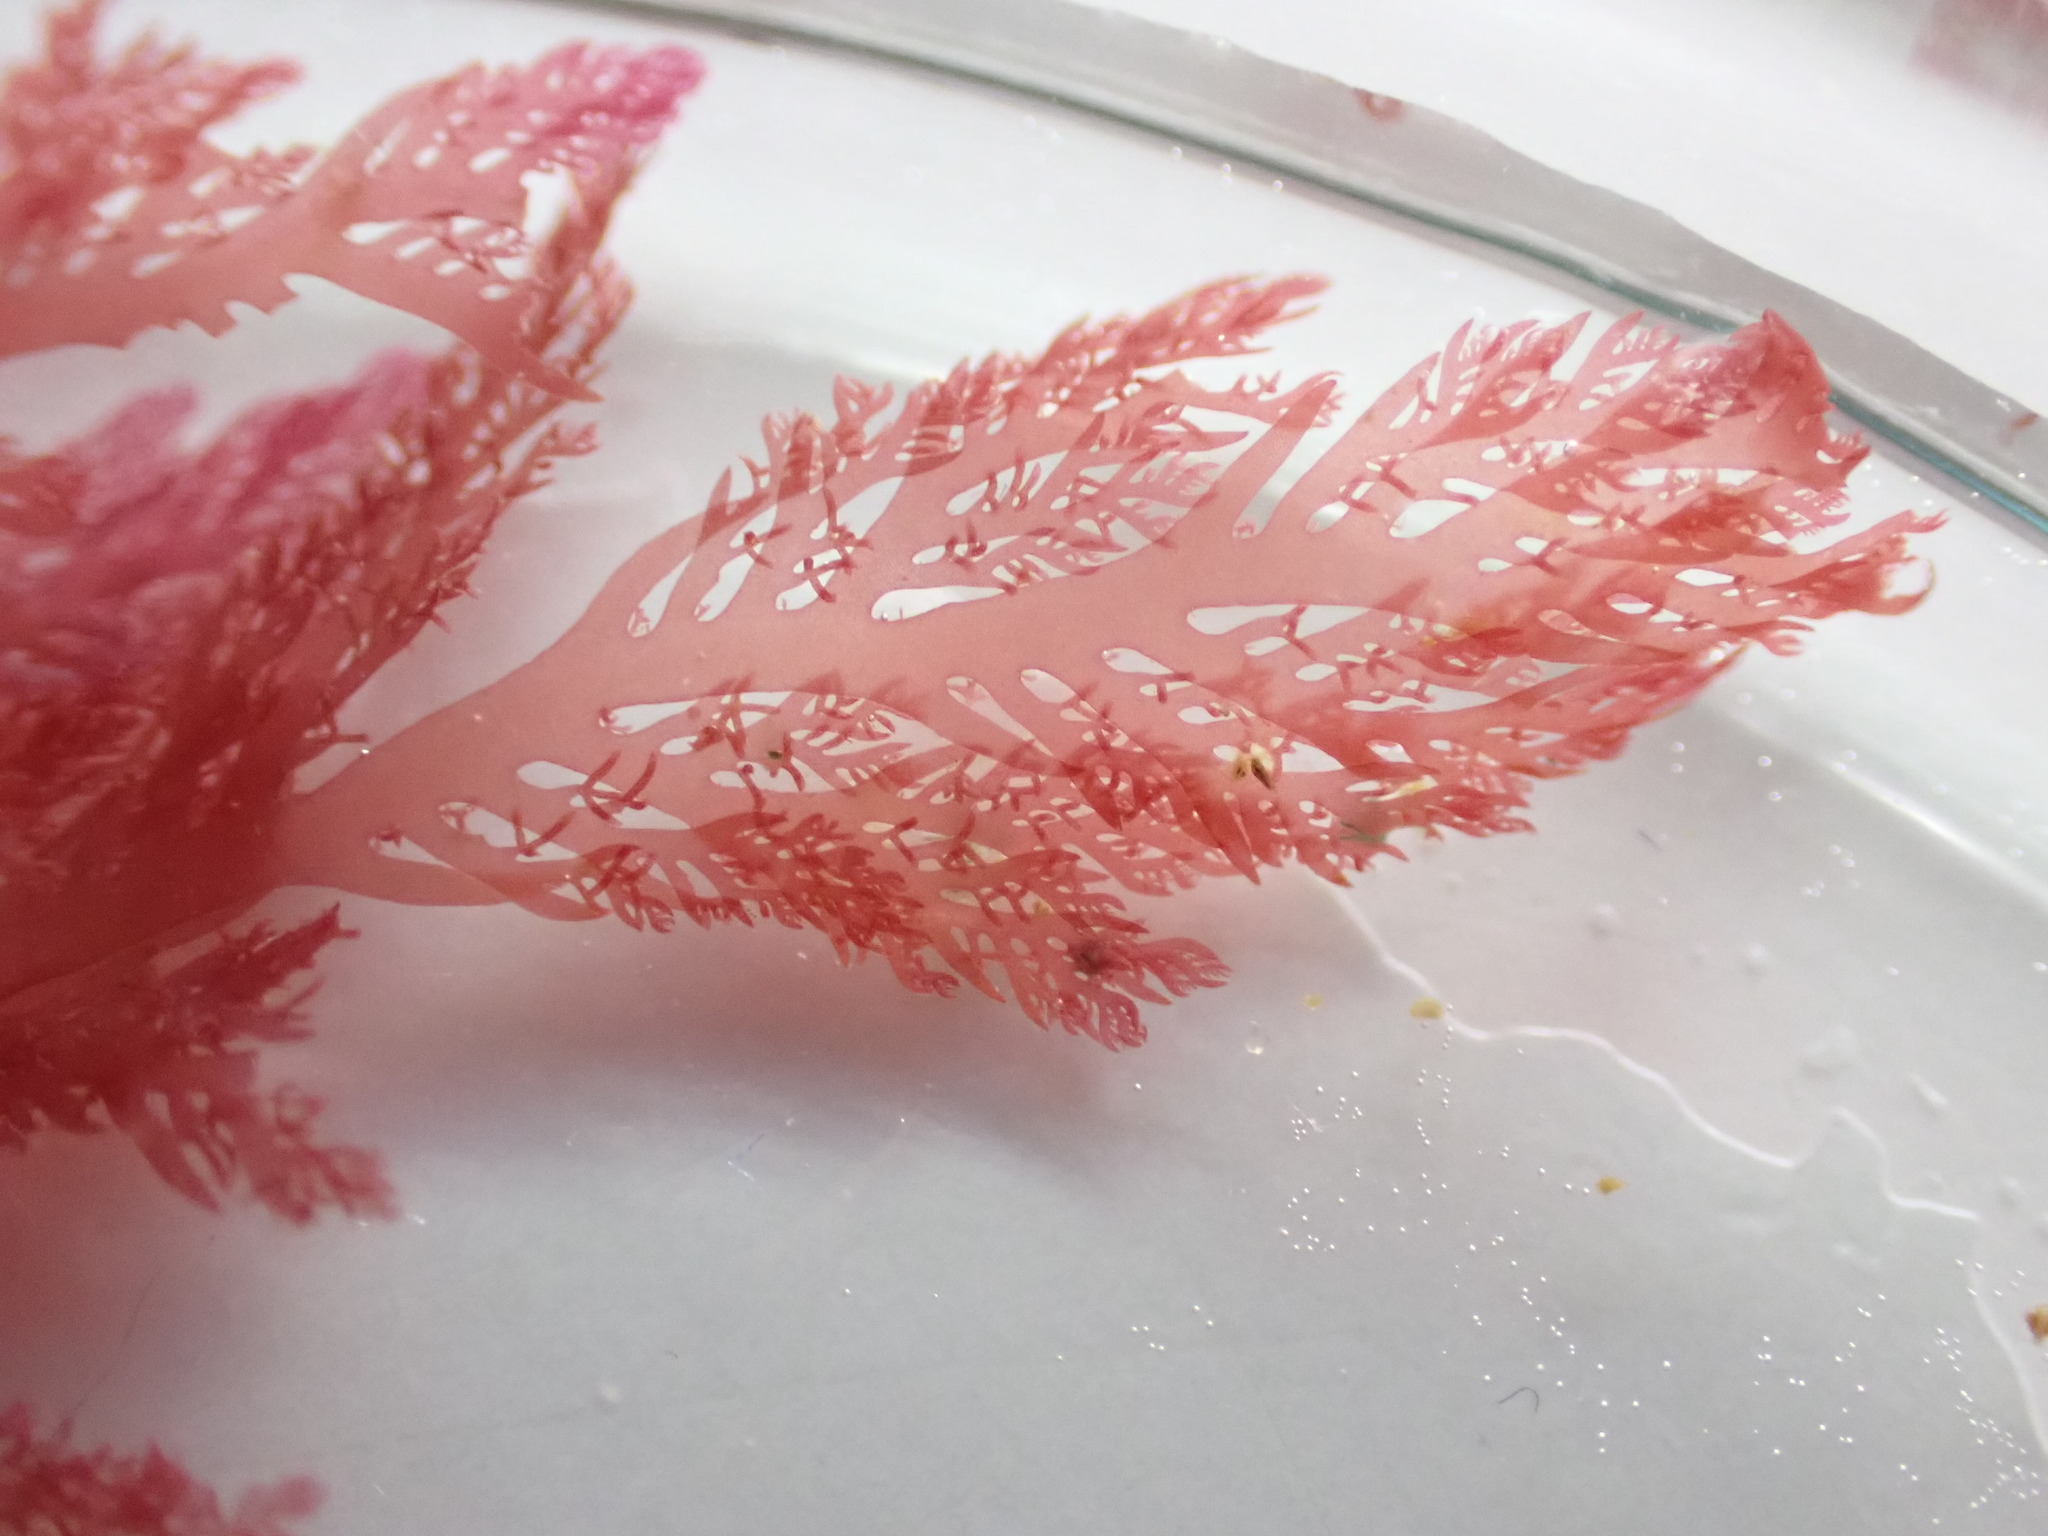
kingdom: Plantae
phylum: Rhodophyta
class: Florideophyceae
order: Plocamiales
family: Plocamiaceae
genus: Plocamium
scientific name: Plocamium cartilagineum
